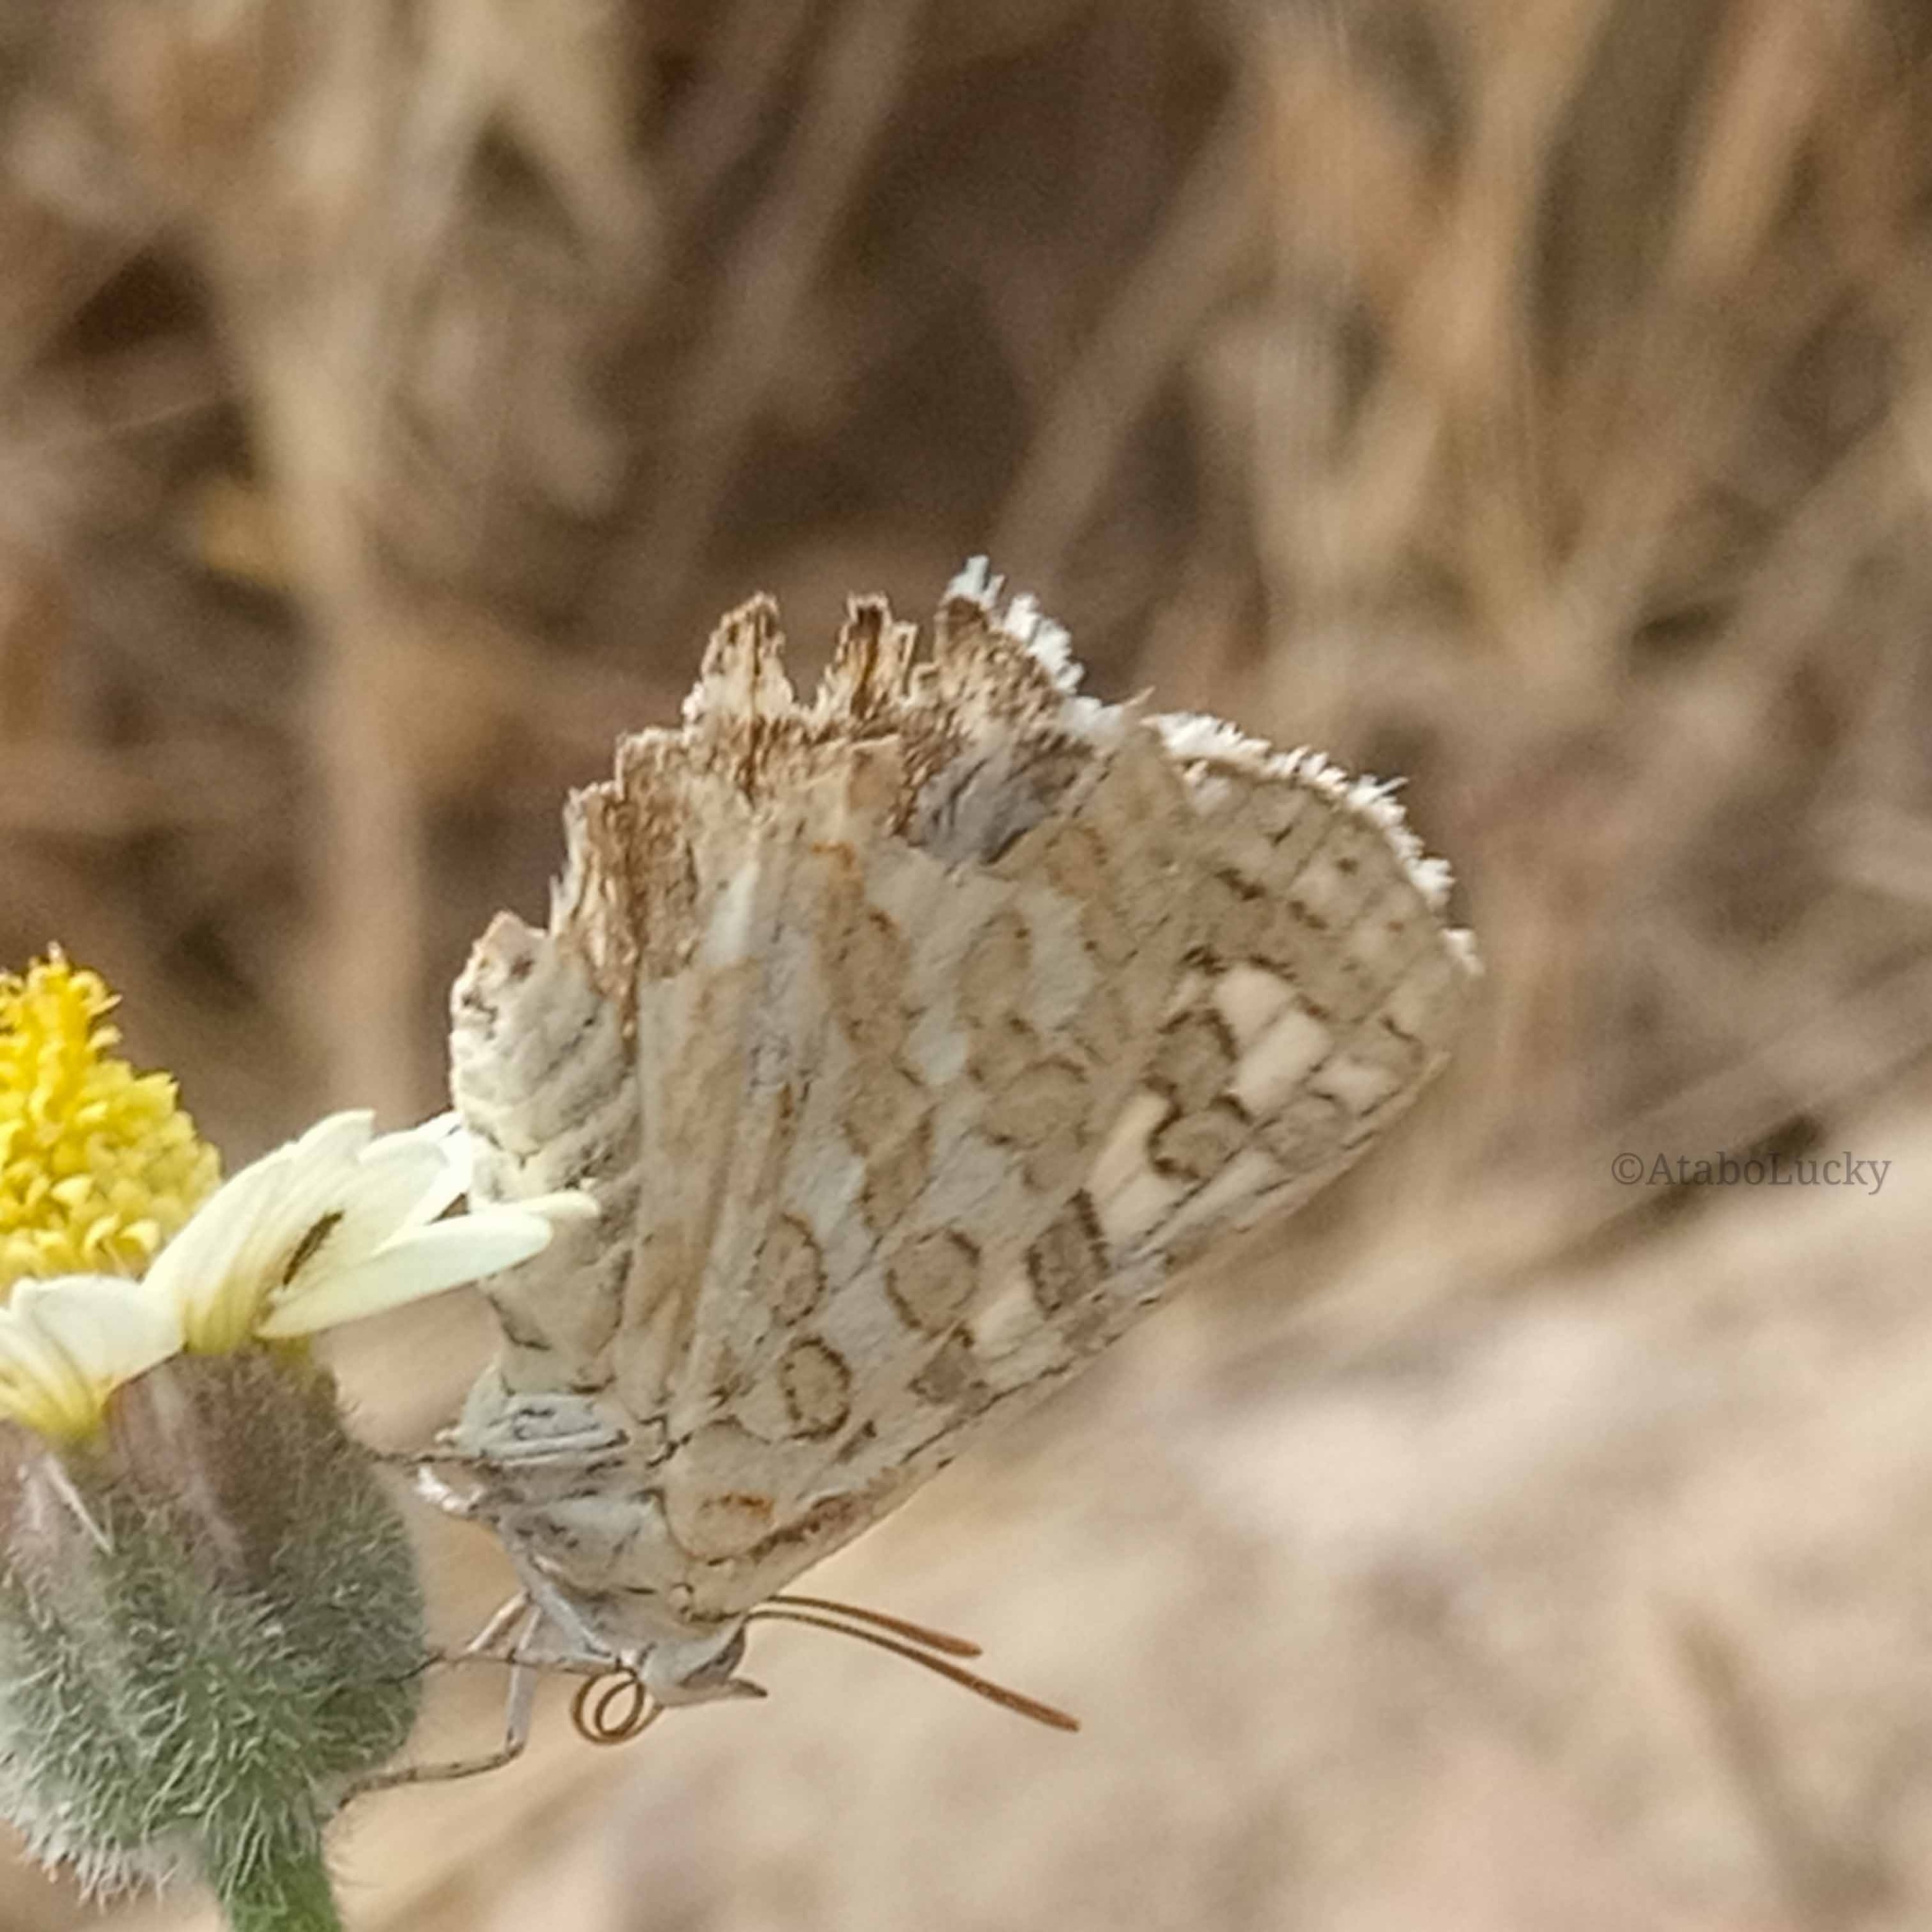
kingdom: Animalia
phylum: Arthropoda
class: Insecta
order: Lepidoptera
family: Lycaenidae
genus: Cigaritis
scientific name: Cigaritis
